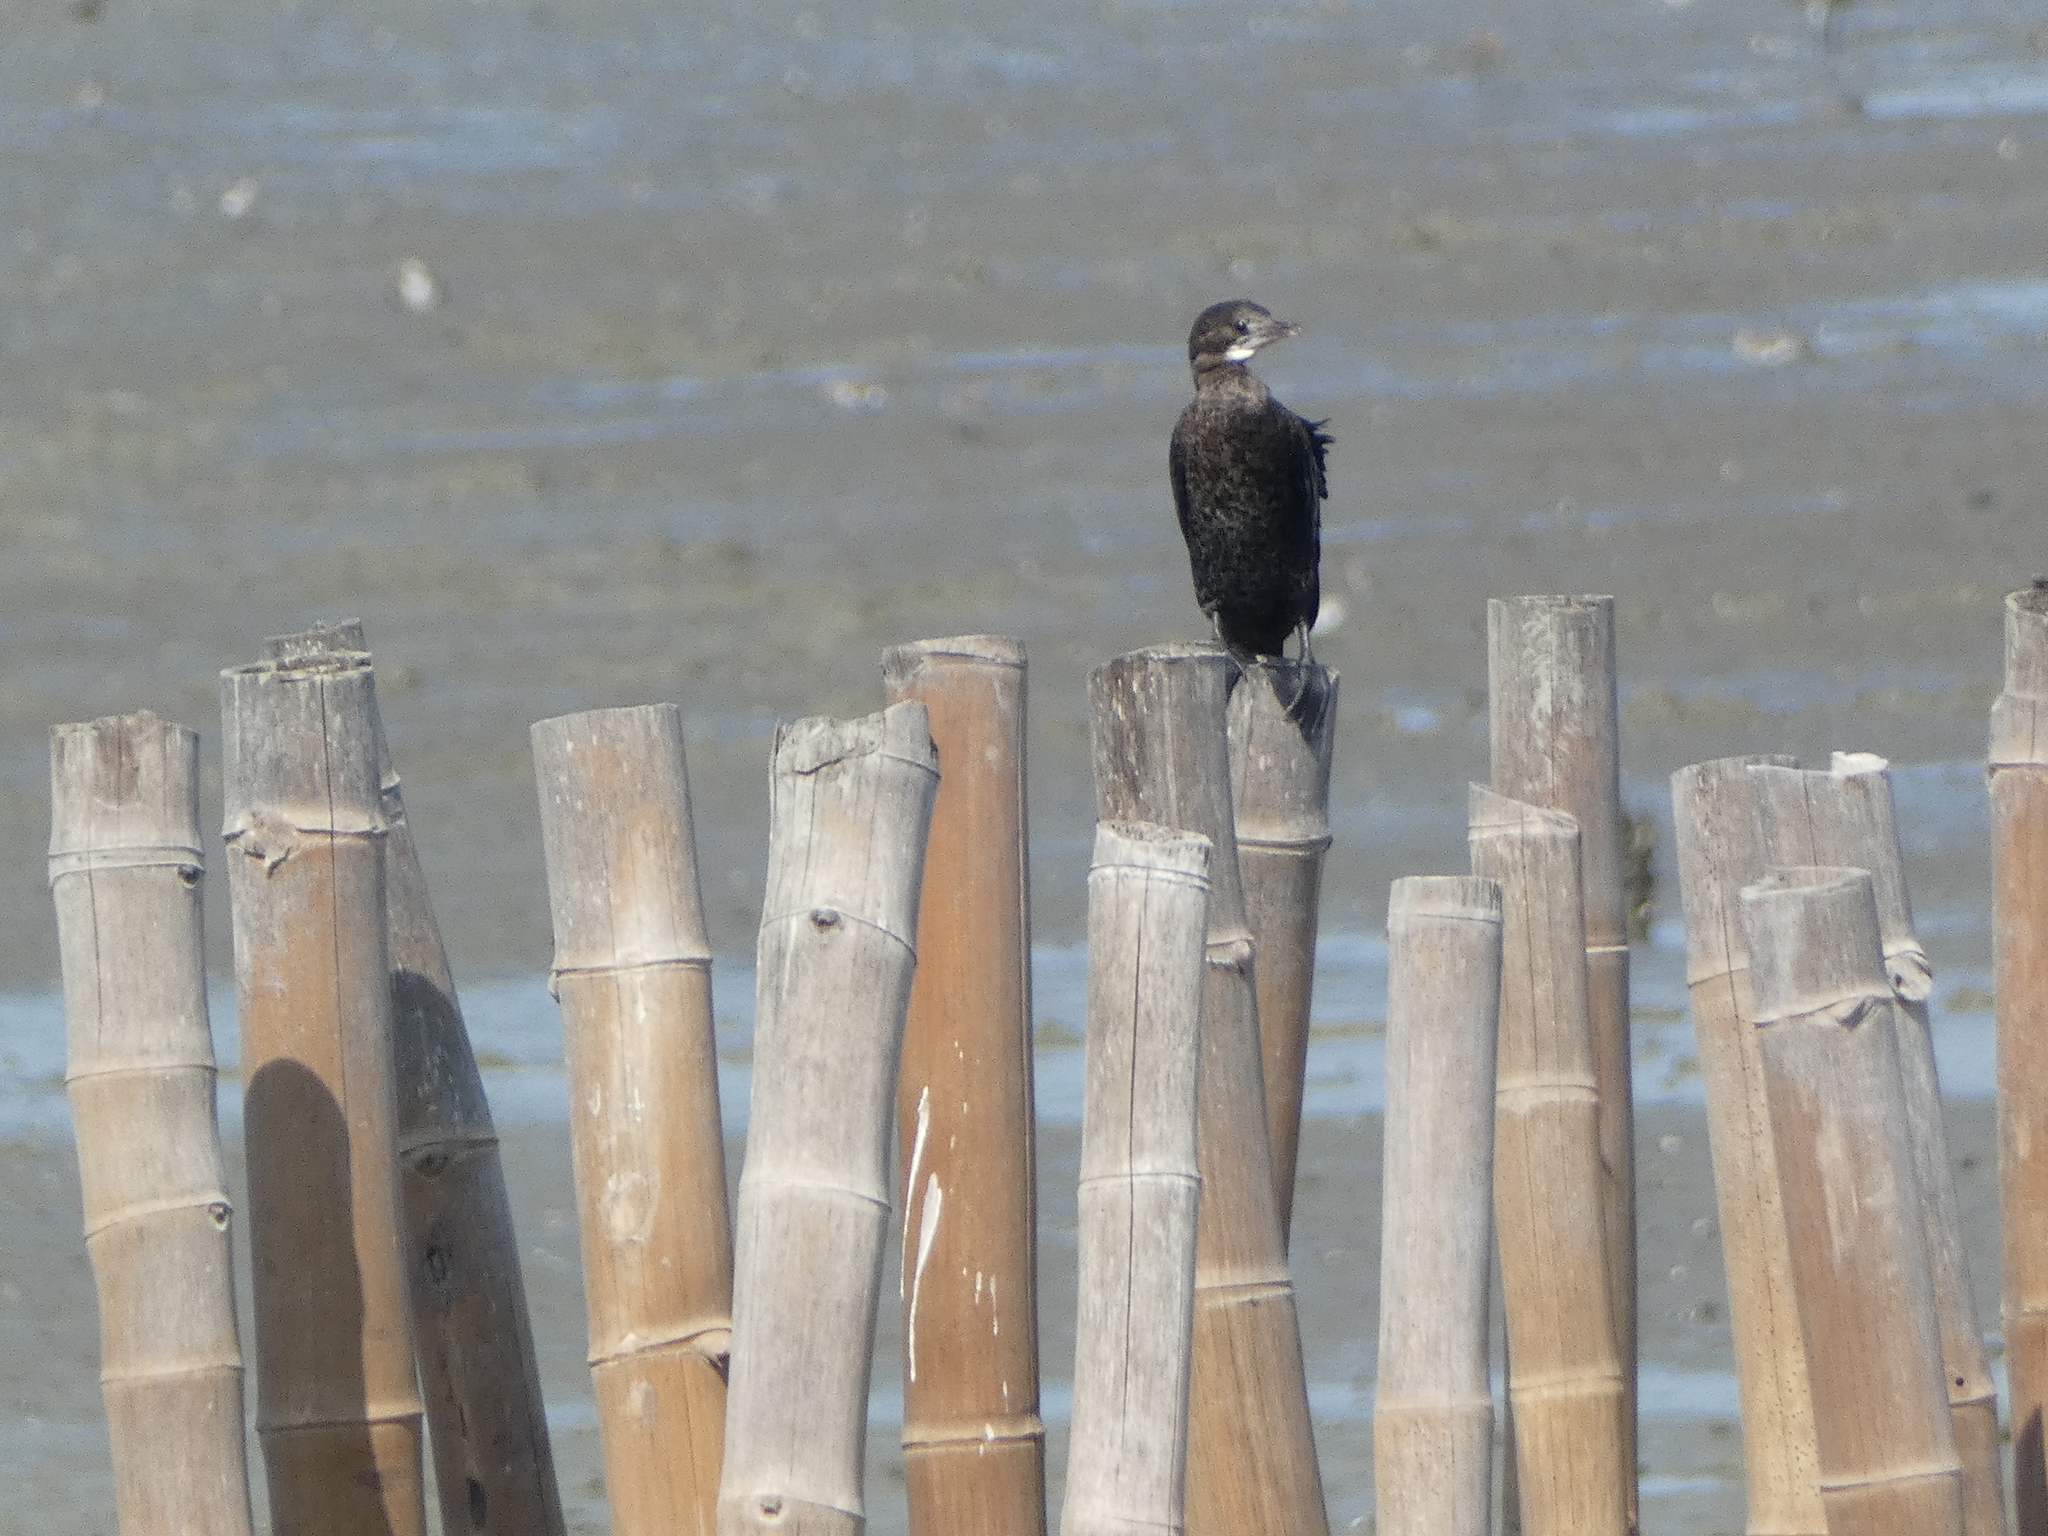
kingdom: Animalia
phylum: Chordata
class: Aves
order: Suliformes
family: Phalacrocoracidae
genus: Microcarbo
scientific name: Microcarbo niger
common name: Little cormorant
